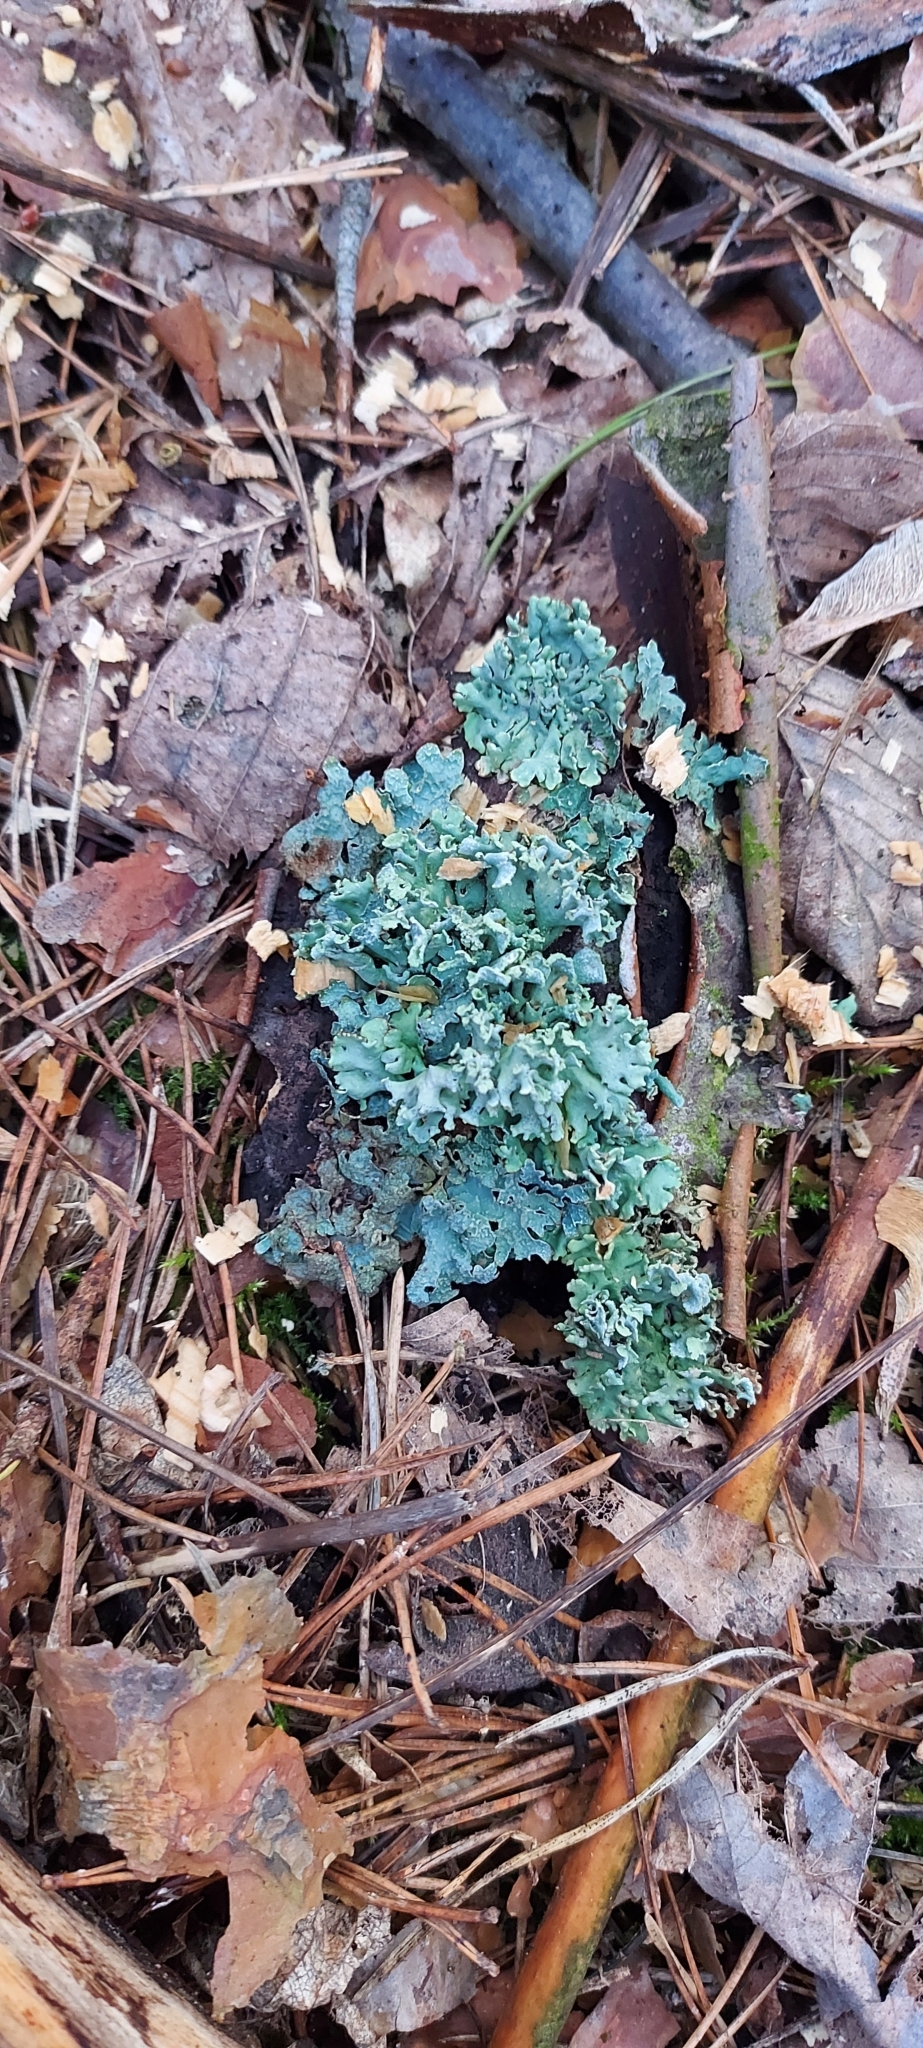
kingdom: Fungi
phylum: Ascomycota
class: Lecanoromycetes
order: Lecanorales
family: Parmeliaceae
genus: Hypogymnia
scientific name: Hypogymnia physodes
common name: Dark crottle
